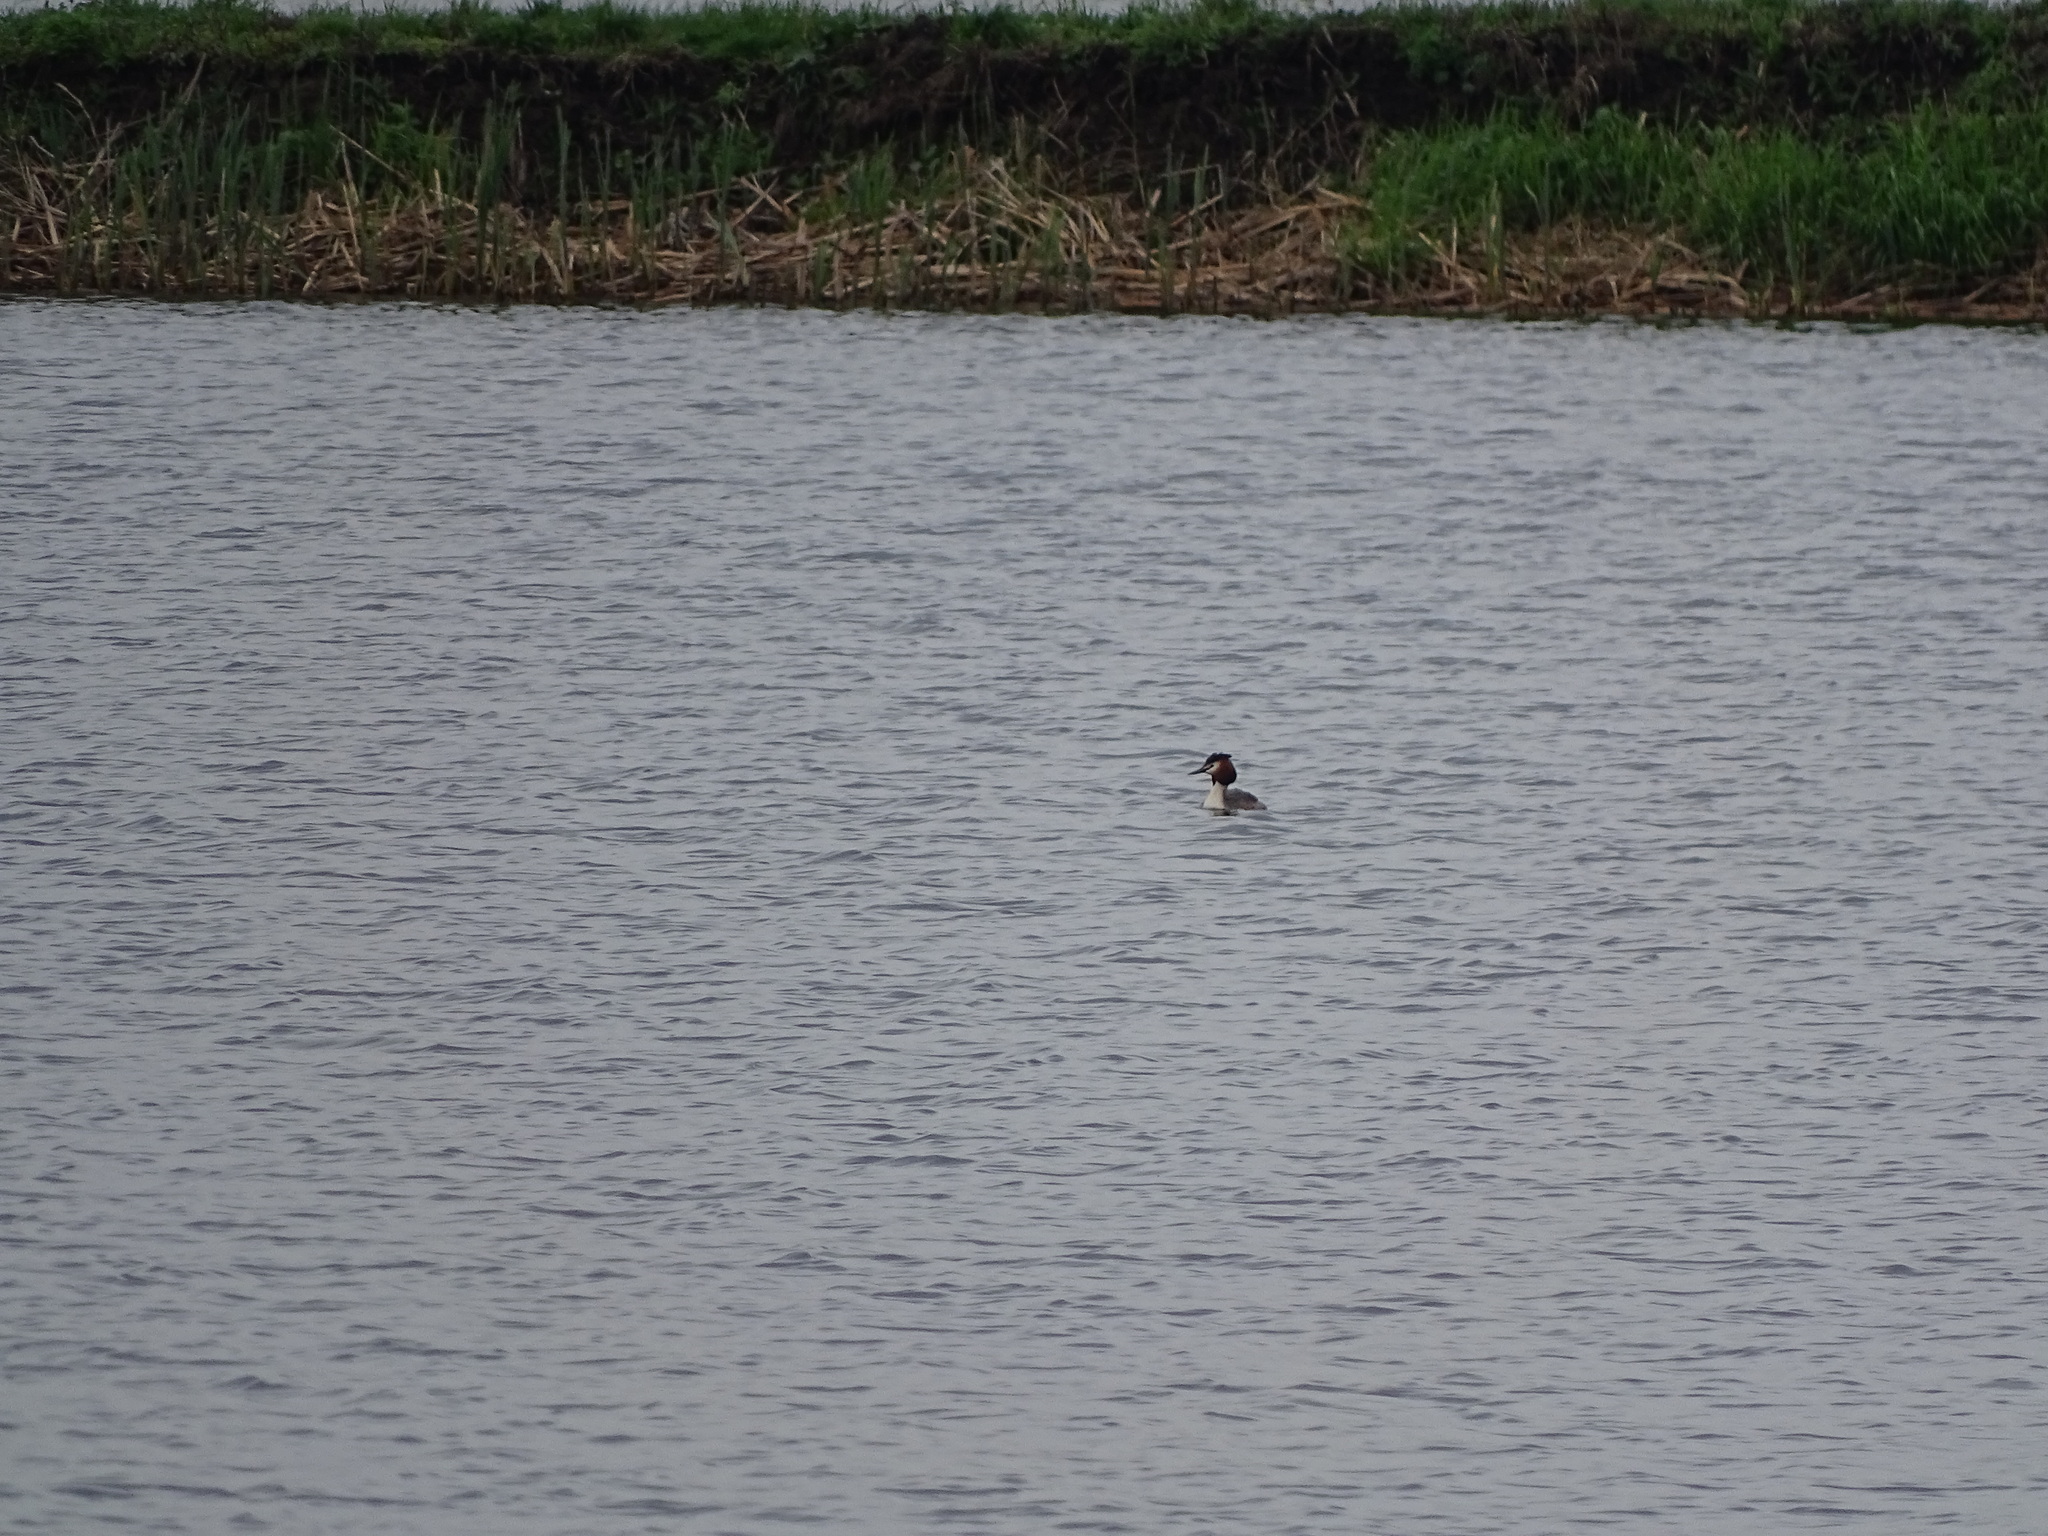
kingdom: Animalia
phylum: Chordata
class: Aves
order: Podicipediformes
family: Podicipedidae
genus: Podiceps
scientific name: Podiceps cristatus
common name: Great crested grebe
